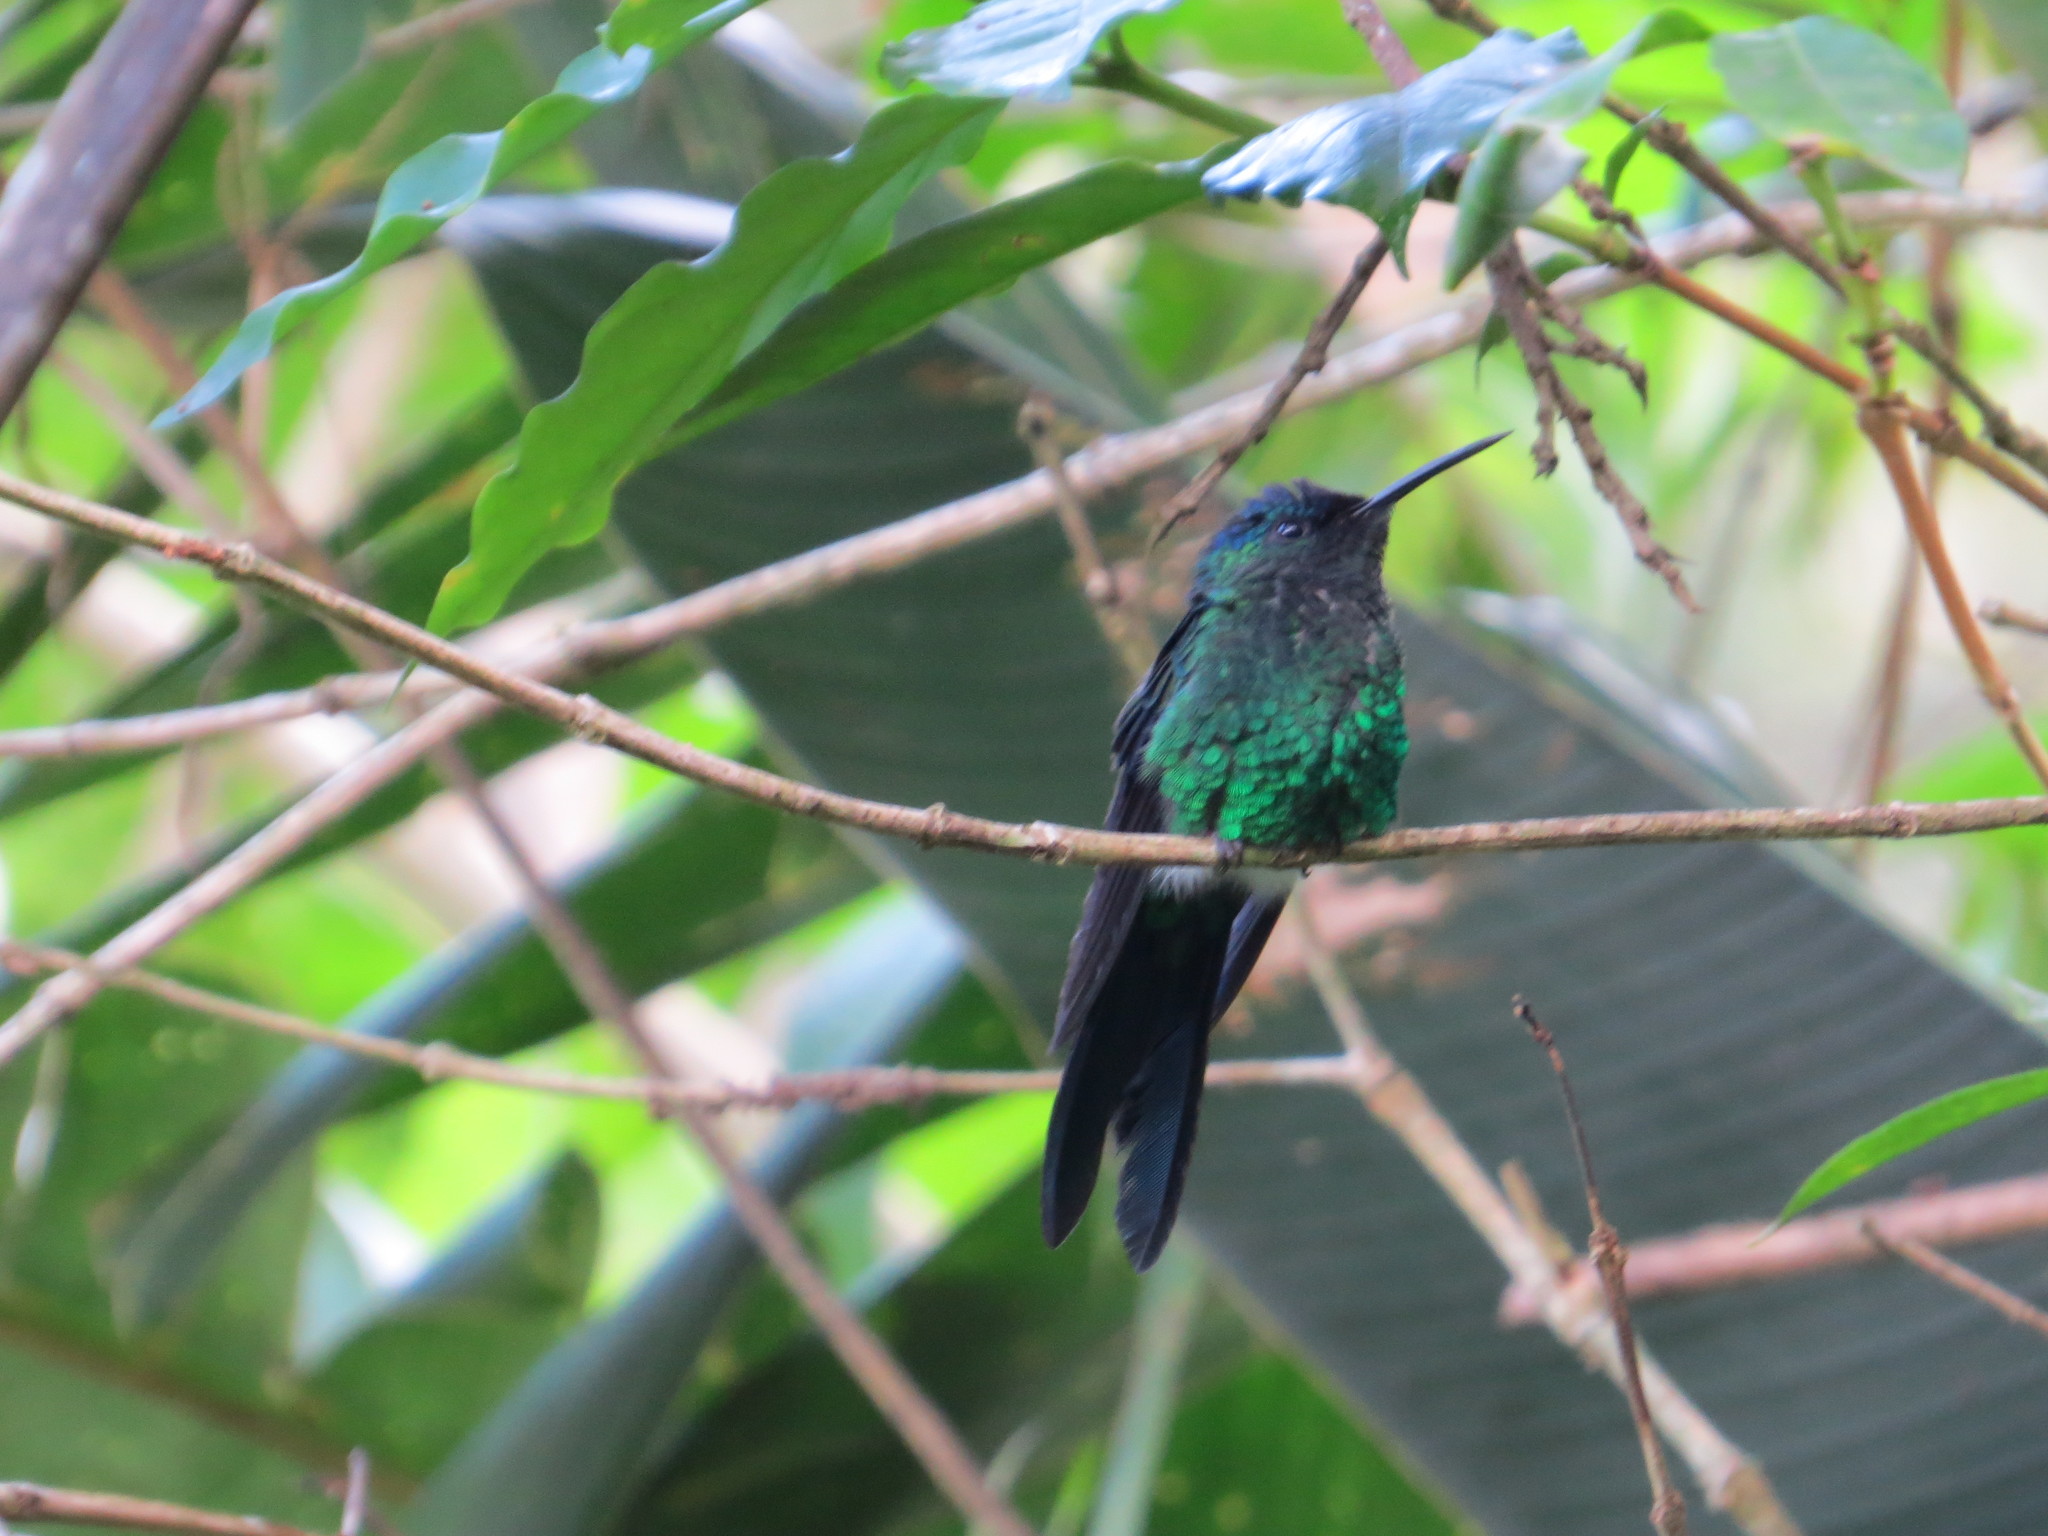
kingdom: Animalia
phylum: Chordata
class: Aves
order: Apodiformes
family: Trochilidae
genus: Thalurania
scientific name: Thalurania glaucopis
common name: Violet-capped woodnymph
